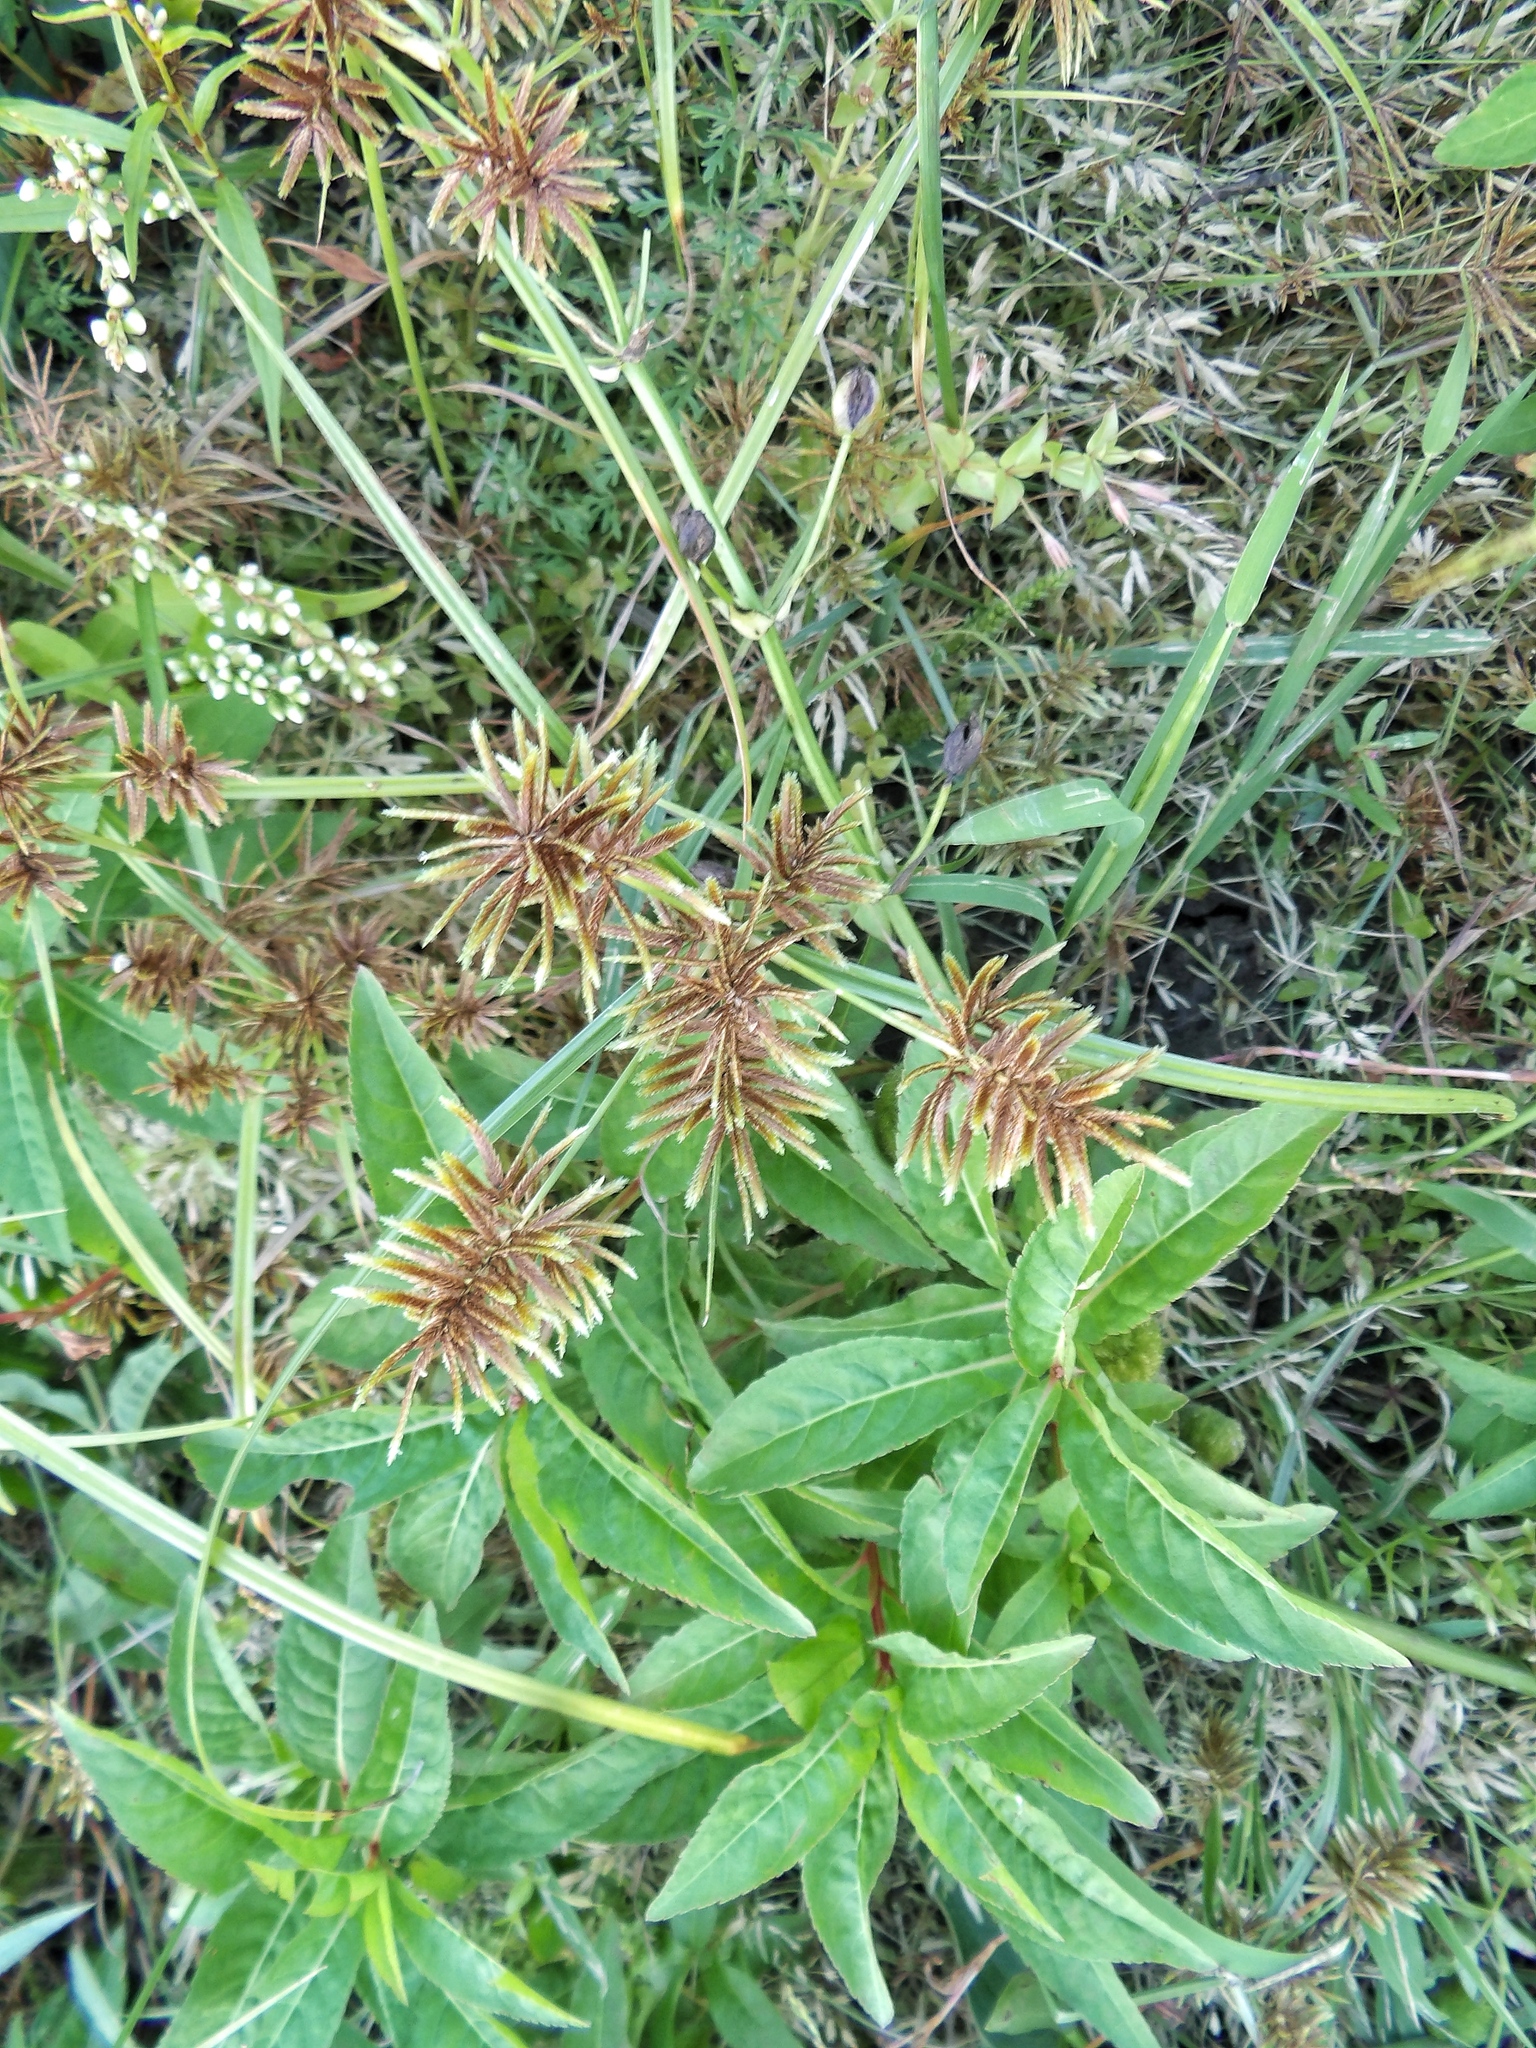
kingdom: Plantae
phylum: Tracheophyta
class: Liliopsida
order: Poales
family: Cyperaceae
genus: Cyperus
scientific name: Cyperus odoratus
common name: Fragrant flatsedge
